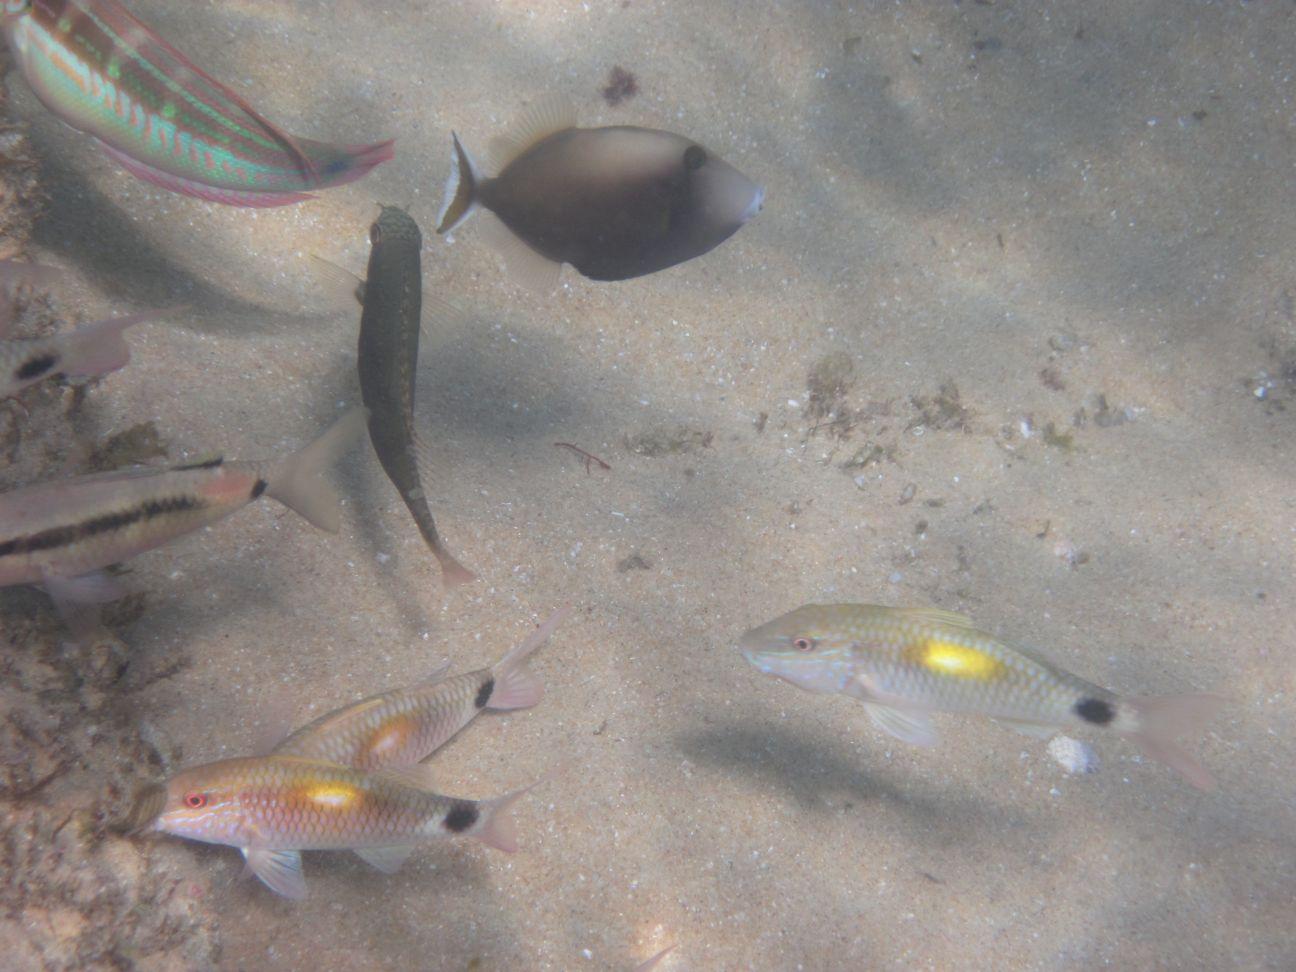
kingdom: Animalia
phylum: Chordata
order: Tetraodontiformes
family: Balistidae
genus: Sufflamen
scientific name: Sufflamen chrysopterum
